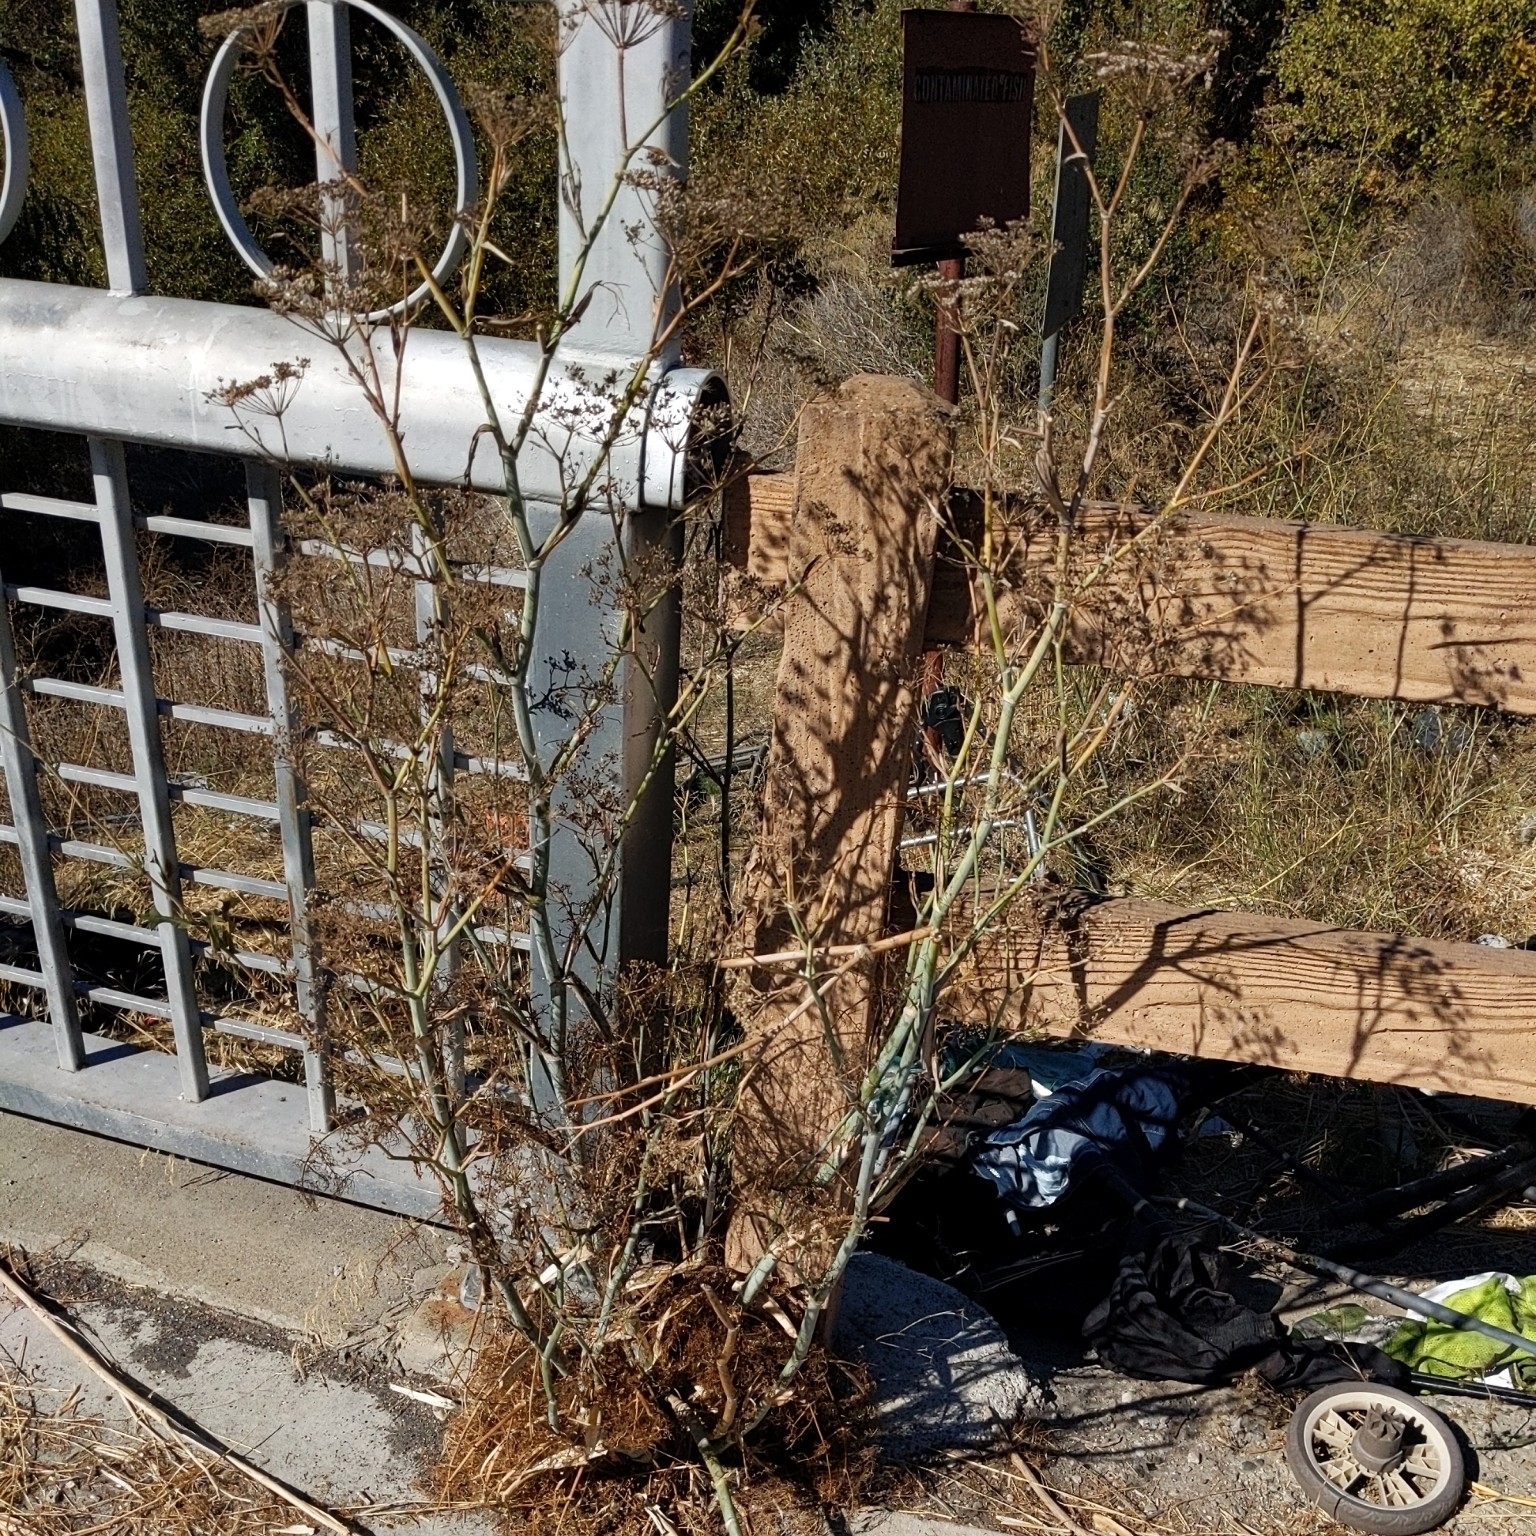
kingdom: Plantae
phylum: Tracheophyta
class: Magnoliopsida
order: Apiales
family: Apiaceae
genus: Foeniculum
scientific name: Foeniculum vulgare
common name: Fennel
